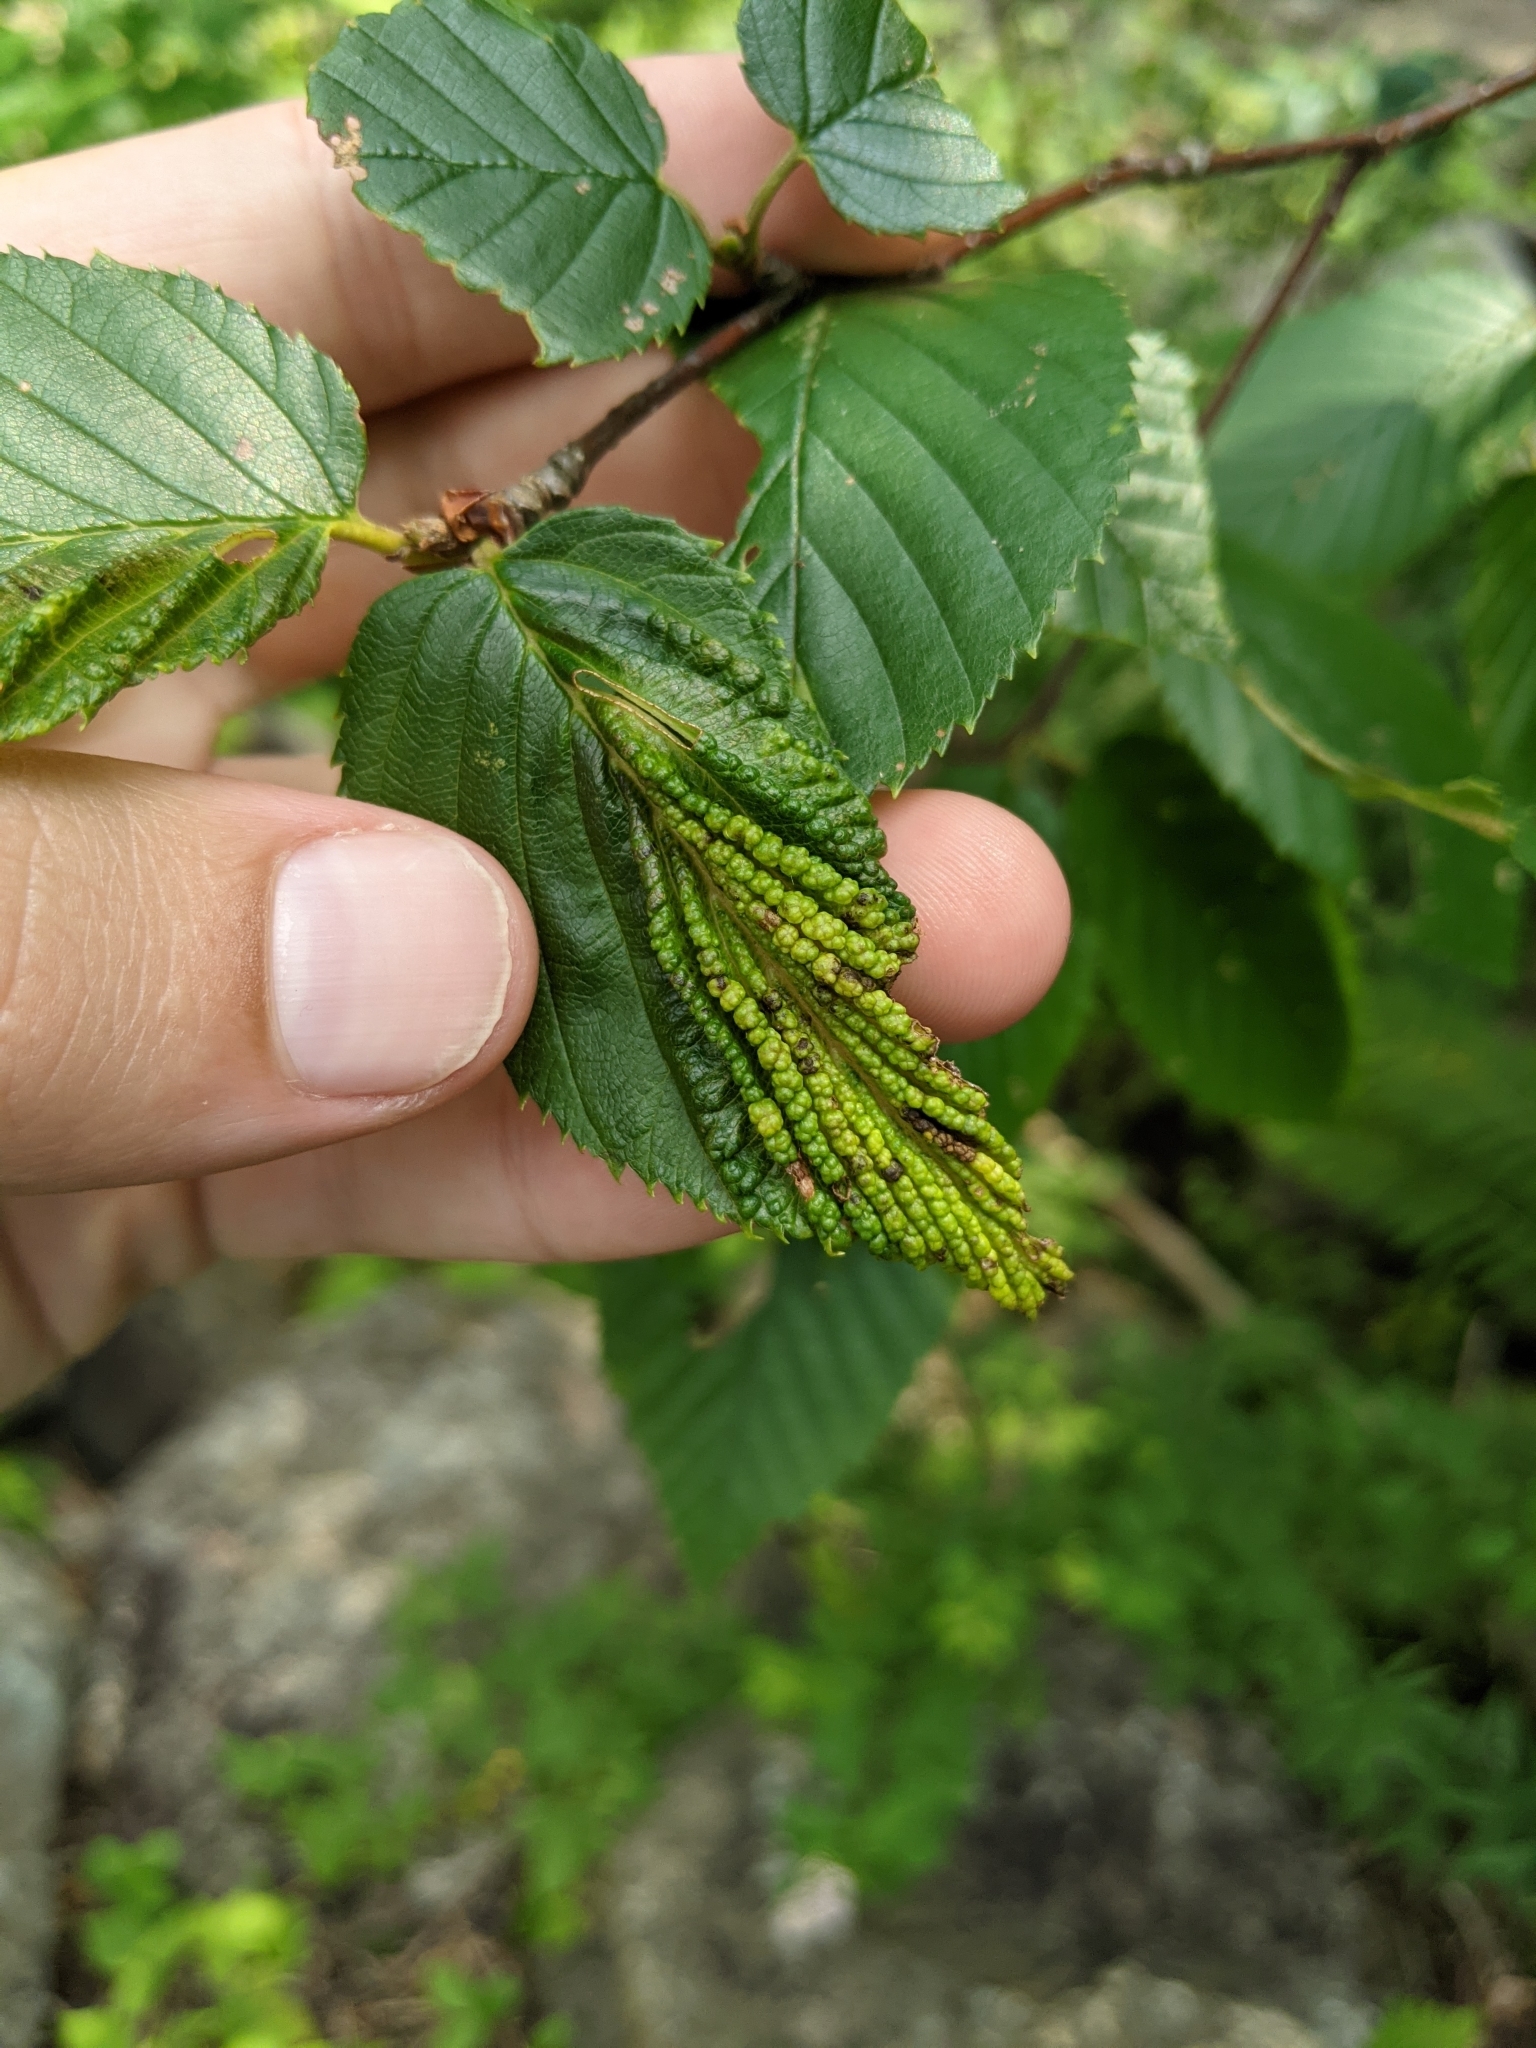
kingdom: Animalia
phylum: Arthropoda
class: Insecta
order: Hemiptera
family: Aphididae
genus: Hamamelistes
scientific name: Hamamelistes spinosus
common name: Witch hazel gall aphid
